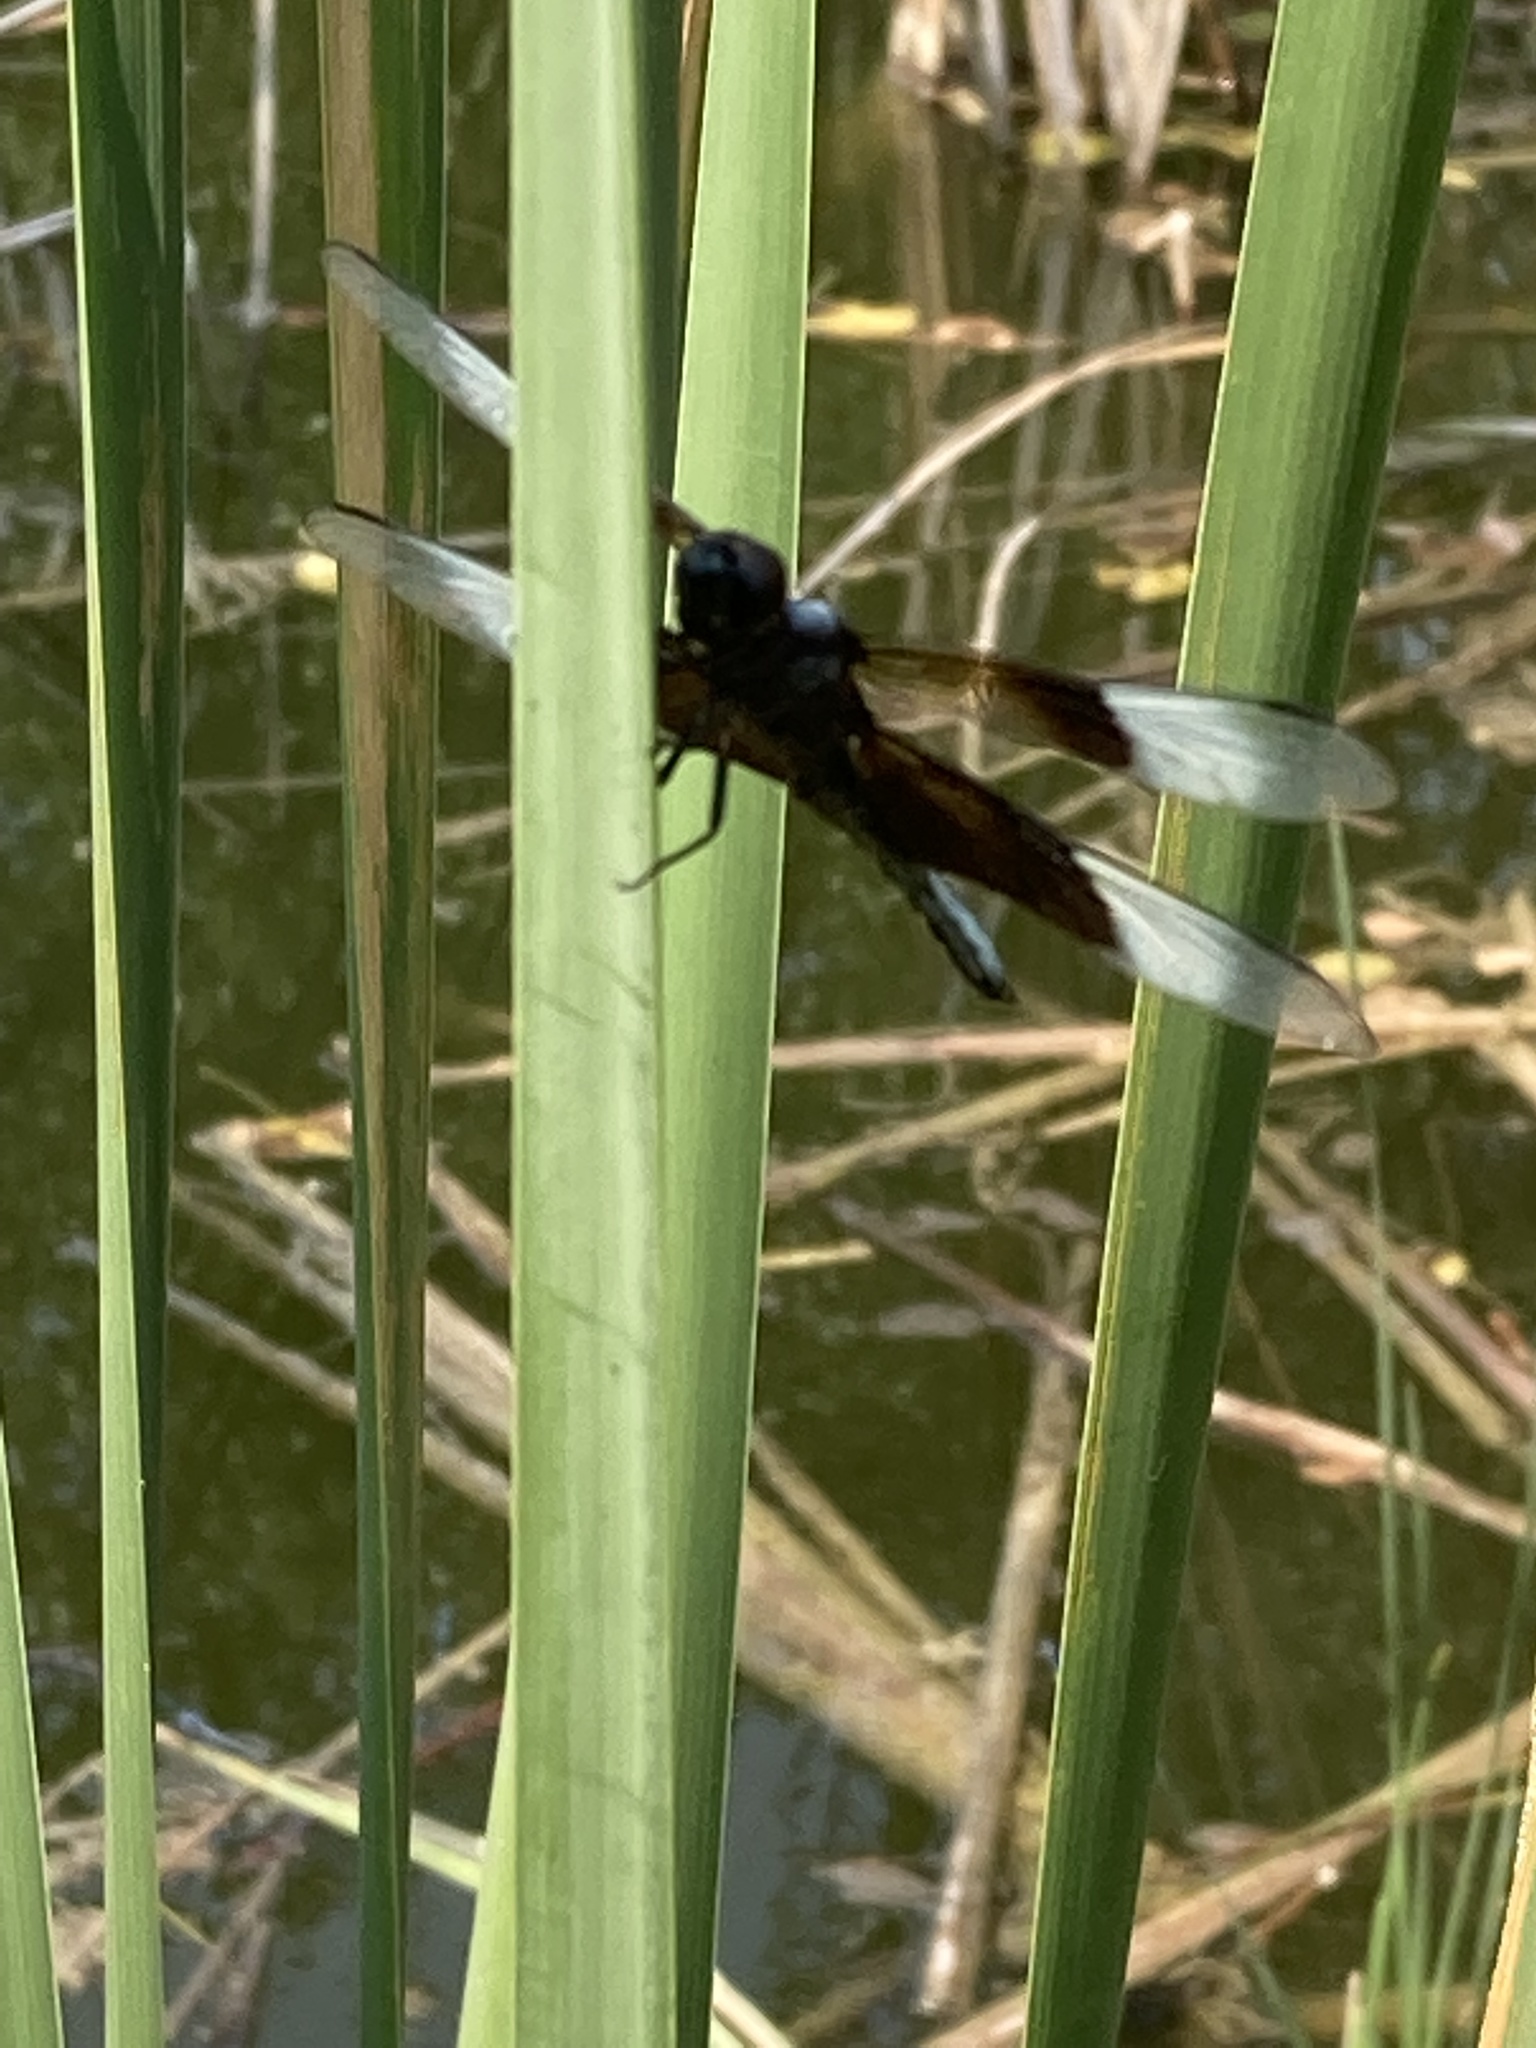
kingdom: Animalia
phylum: Arthropoda
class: Insecta
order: Odonata
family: Libellulidae
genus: Libellula
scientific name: Libellula luctuosa
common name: Widow skimmer
